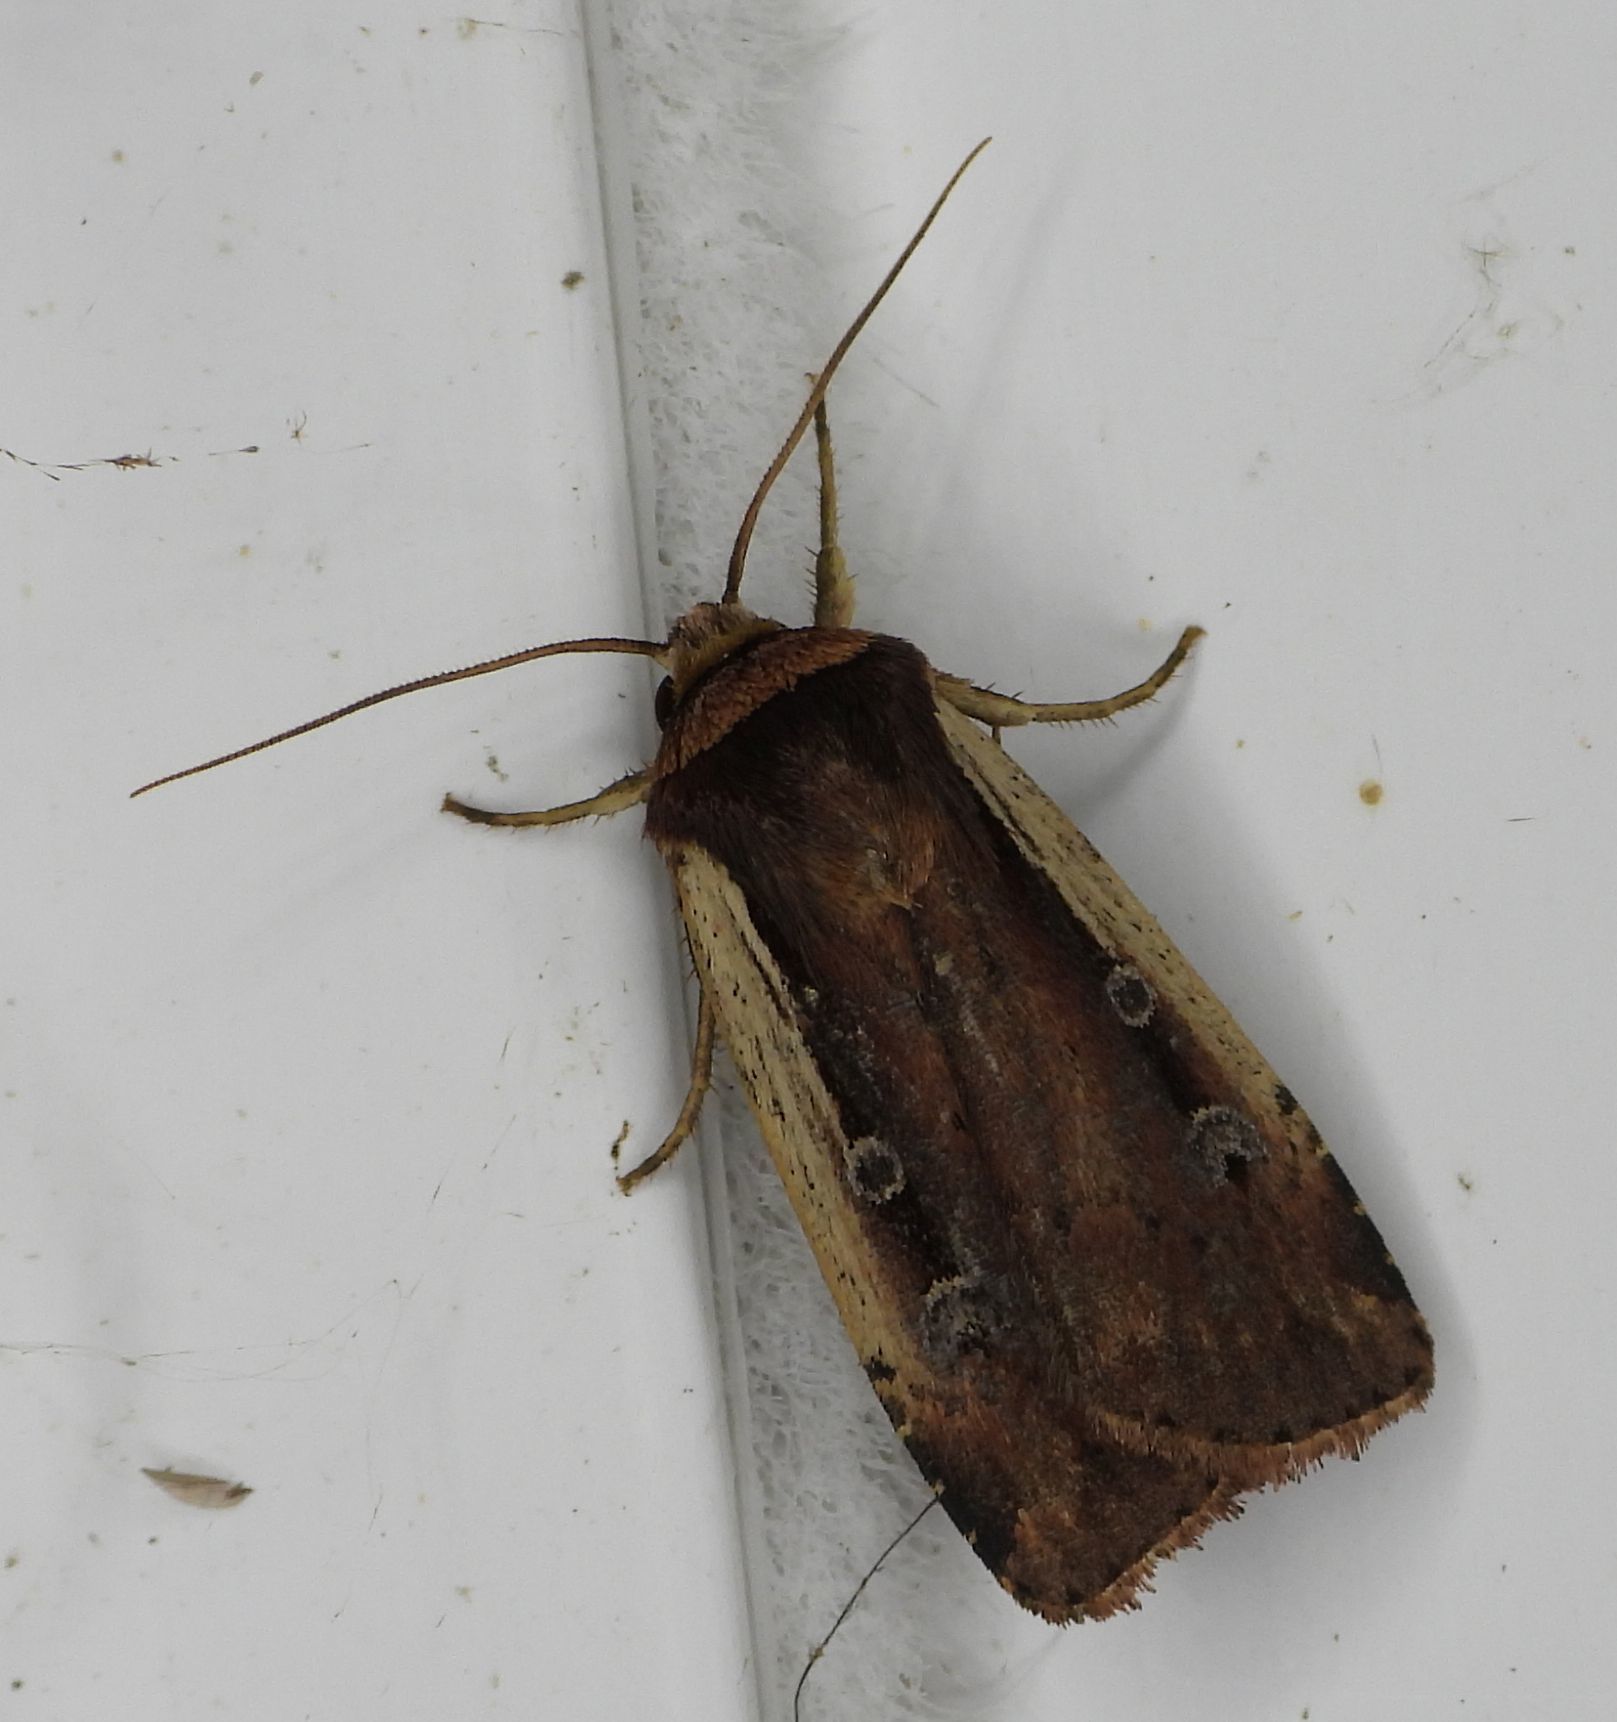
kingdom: Animalia
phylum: Arthropoda
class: Insecta
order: Lepidoptera
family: Noctuidae
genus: Ochropleura
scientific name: Ochropleura implecta
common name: Flame-shouldered dart
